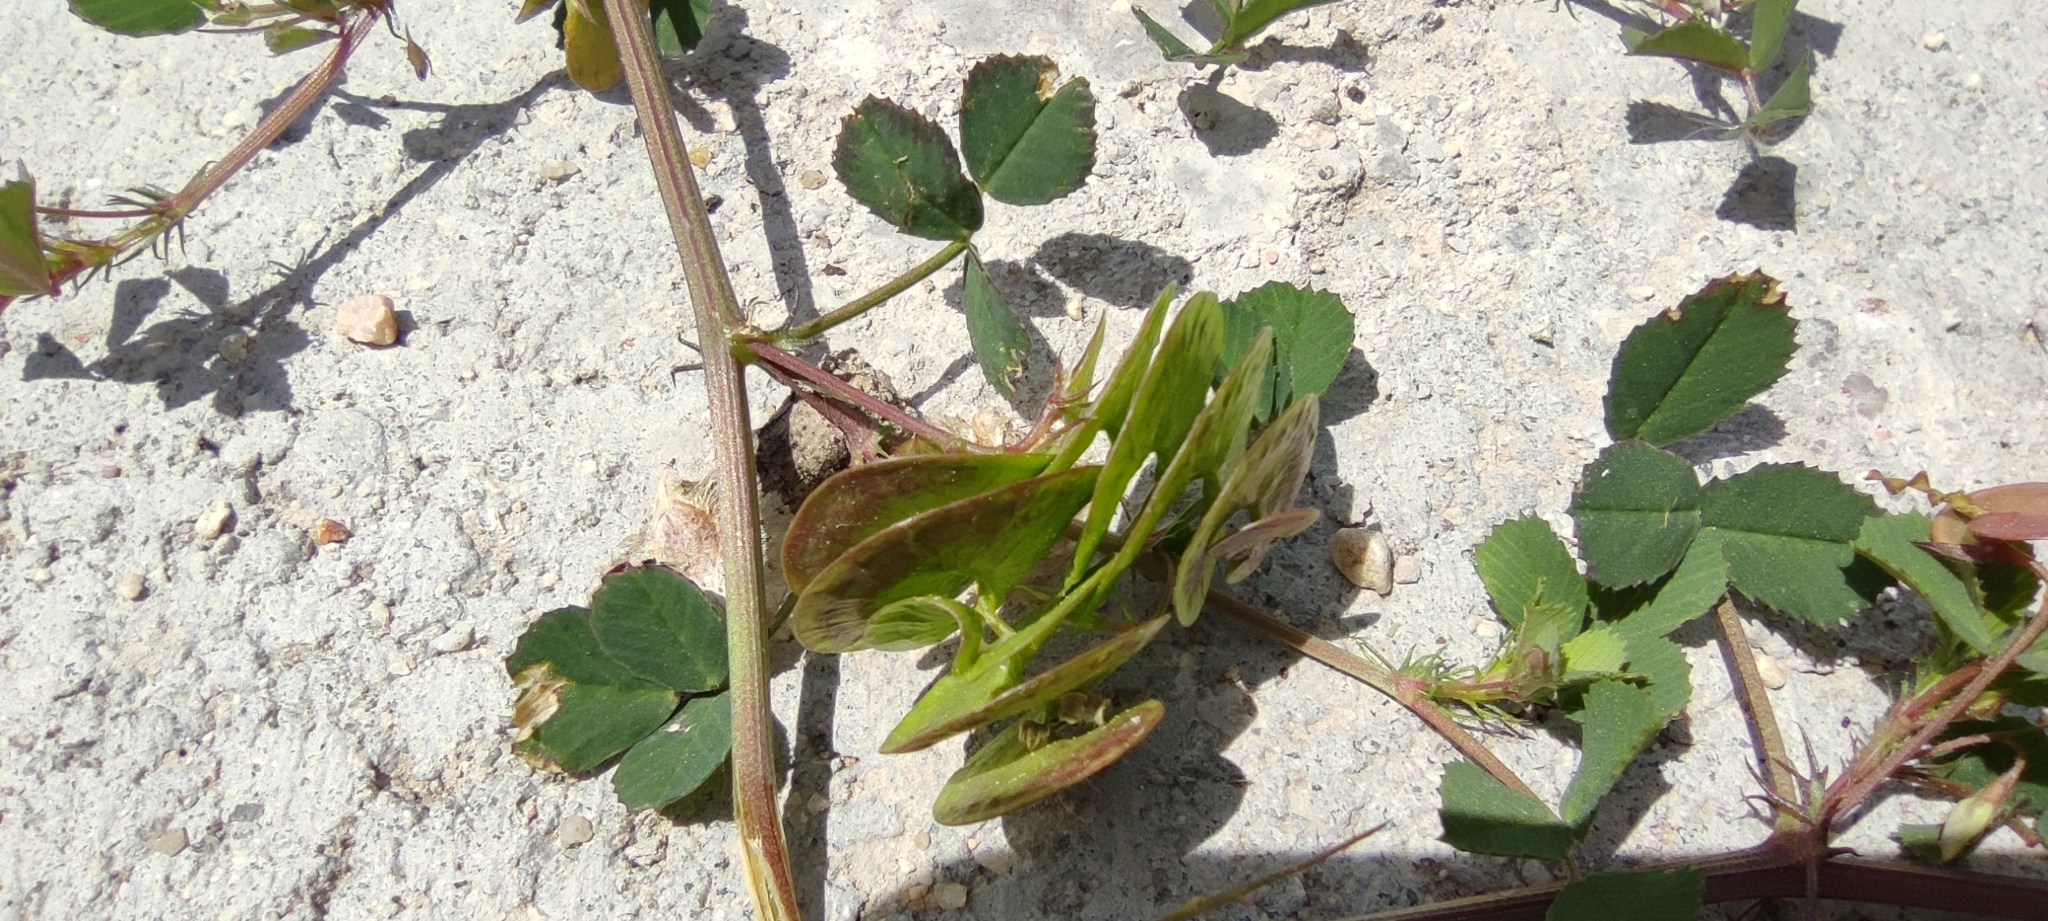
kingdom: Plantae
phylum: Tracheophyta
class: Magnoliopsida
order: Fabales
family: Fabaceae
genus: Medicago
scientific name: Medicago orbicularis
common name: Button medick
